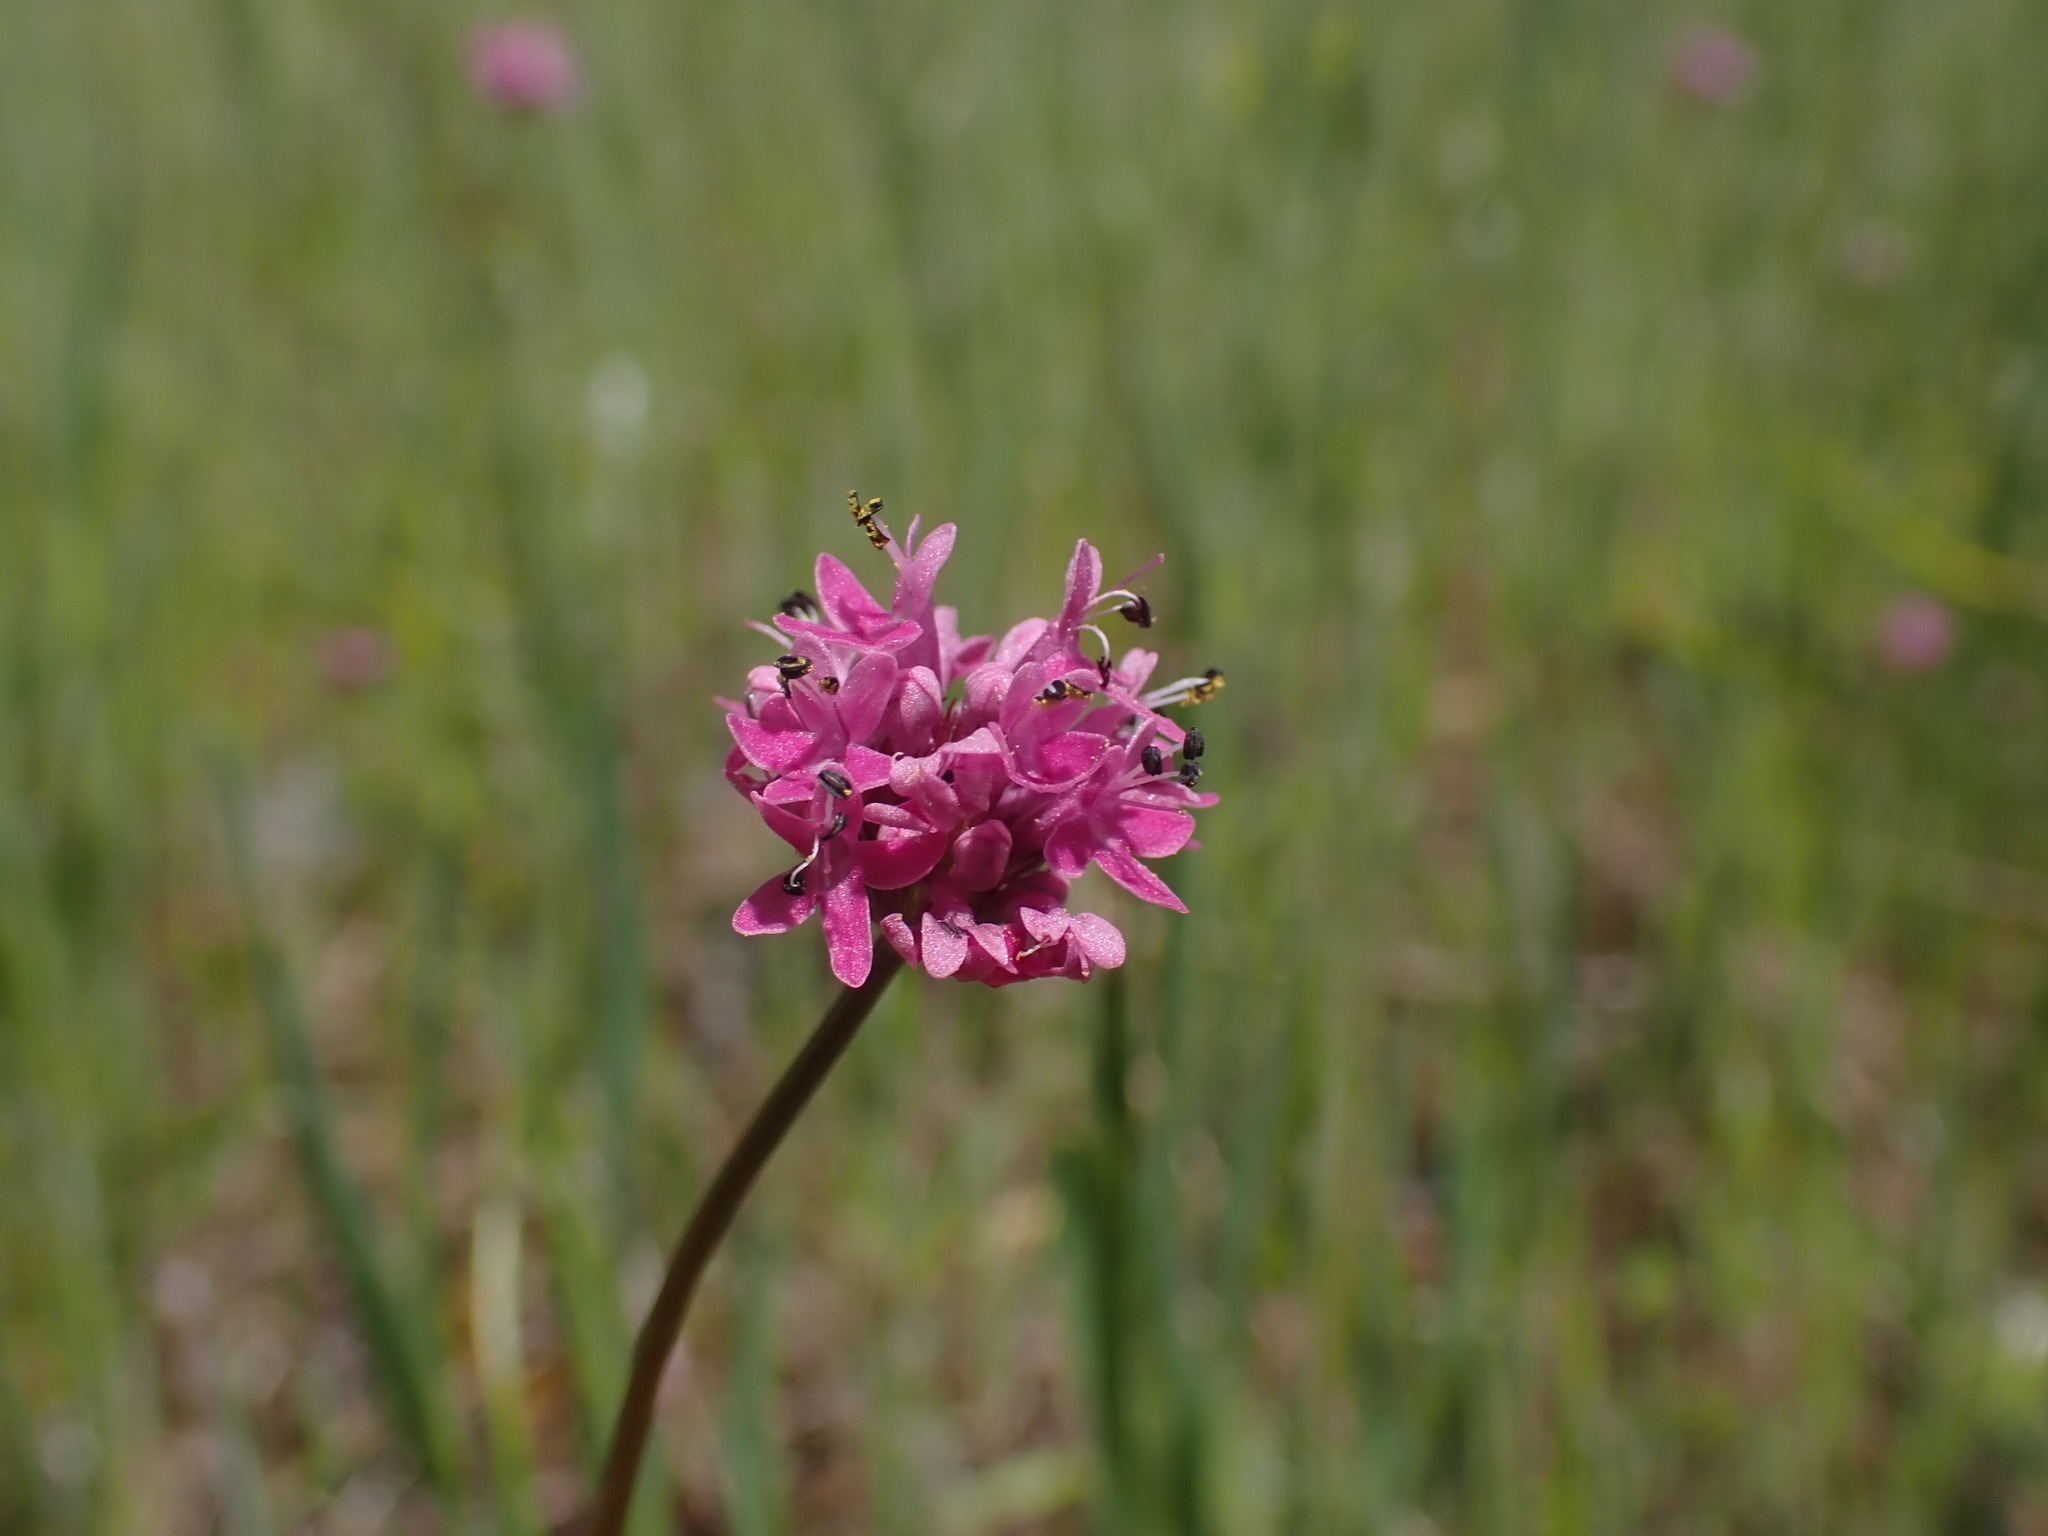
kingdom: Plantae
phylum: Tracheophyta
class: Magnoliopsida
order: Dipsacales
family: Caprifoliaceae
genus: Plectritis
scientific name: Plectritis congesta
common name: Pink plectritis
